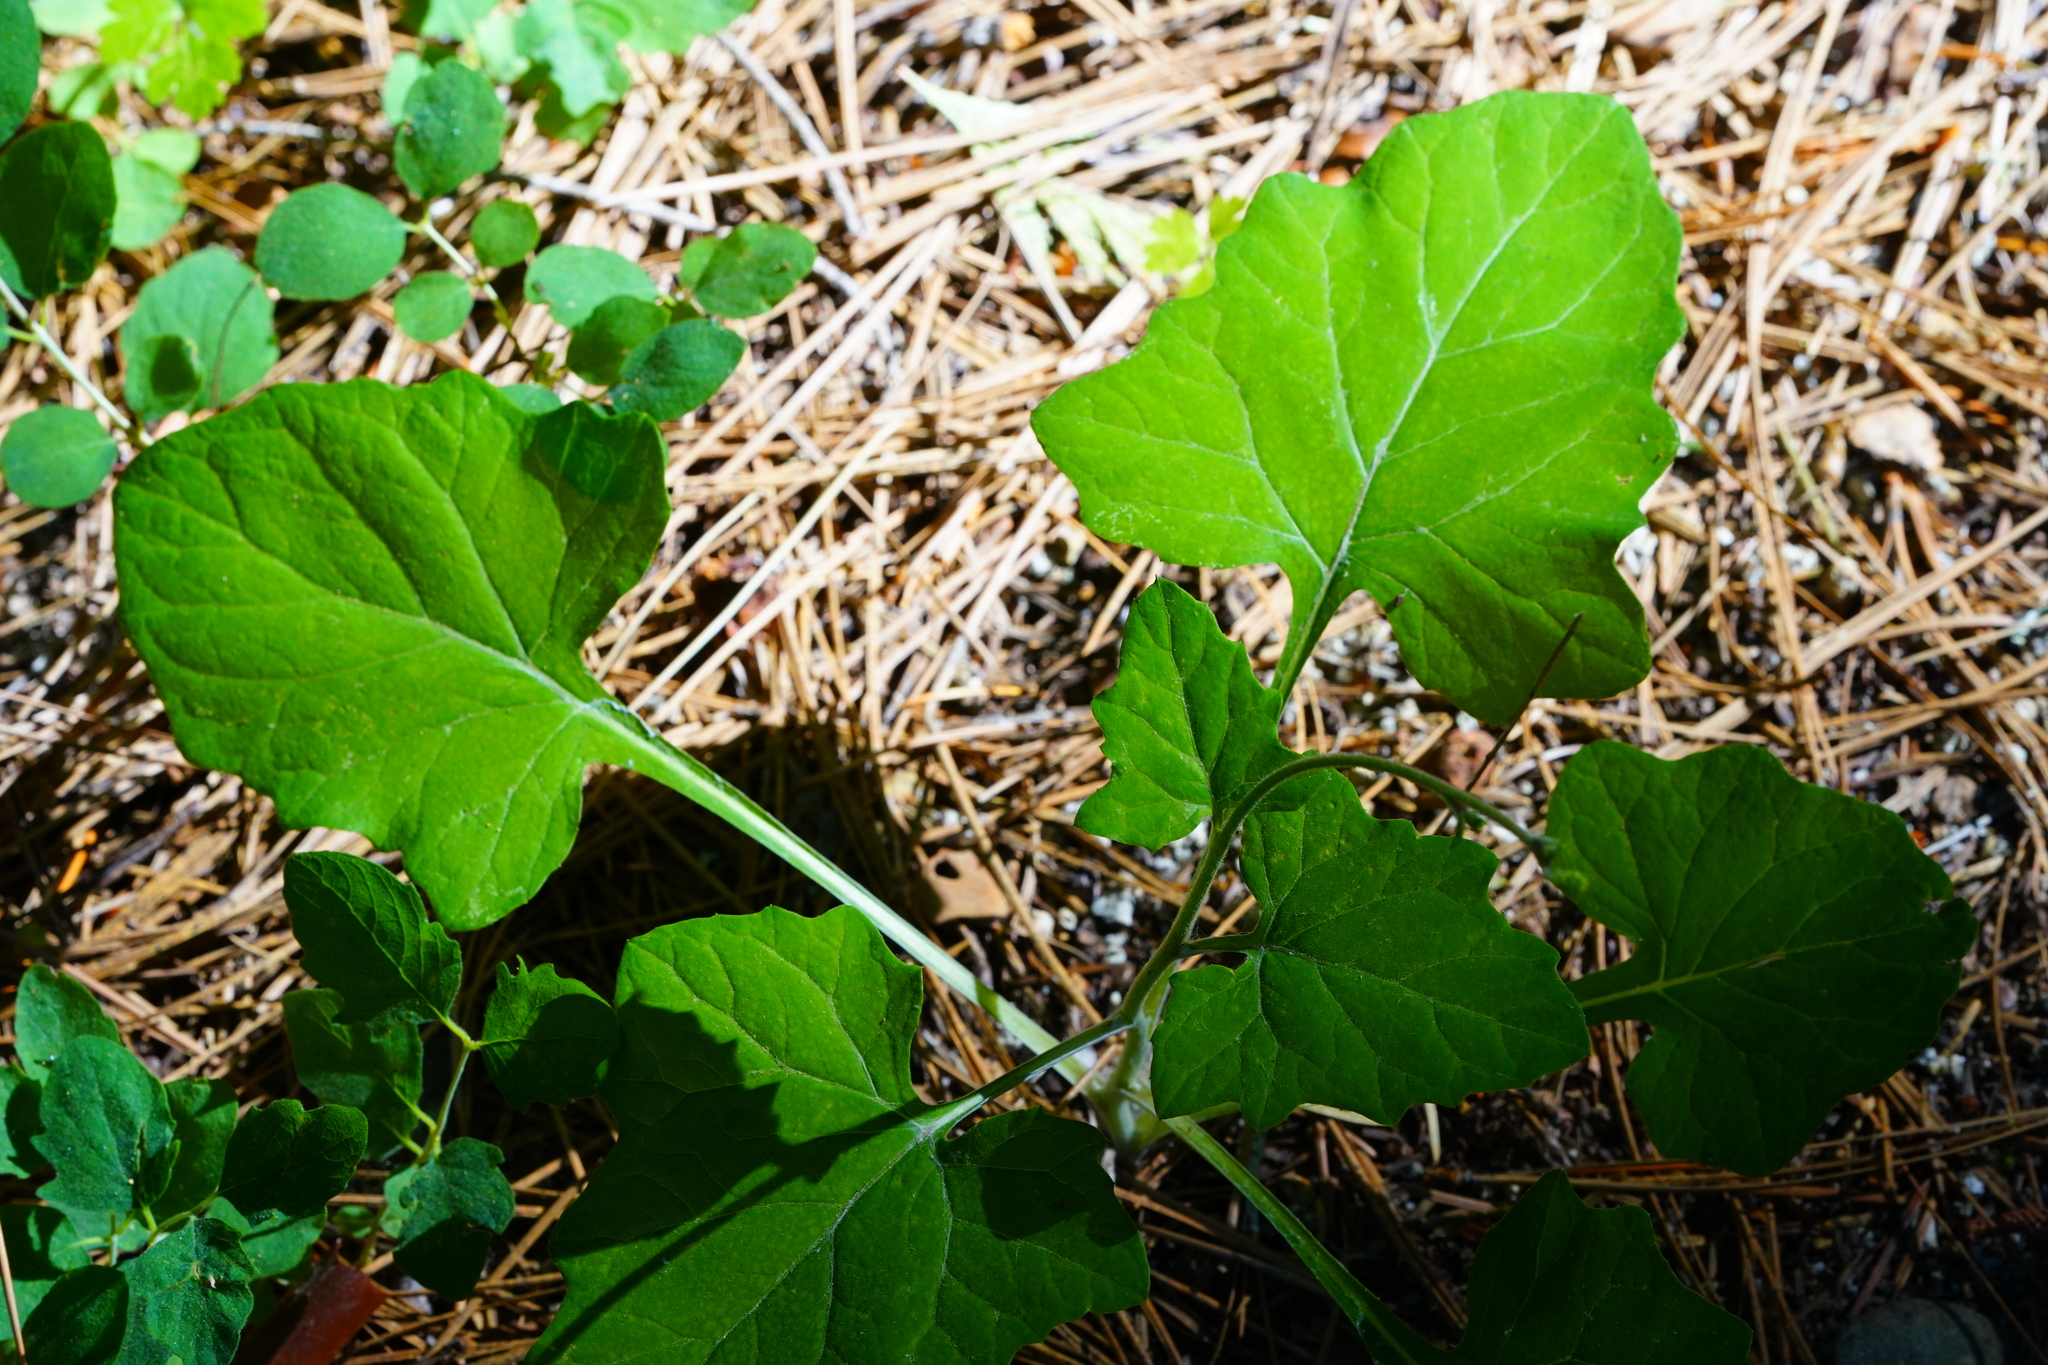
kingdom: Plantae
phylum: Tracheophyta
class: Magnoliopsida
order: Asterales
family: Asteraceae
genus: Adenocaulon
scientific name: Adenocaulon bicolor
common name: Trailplant
